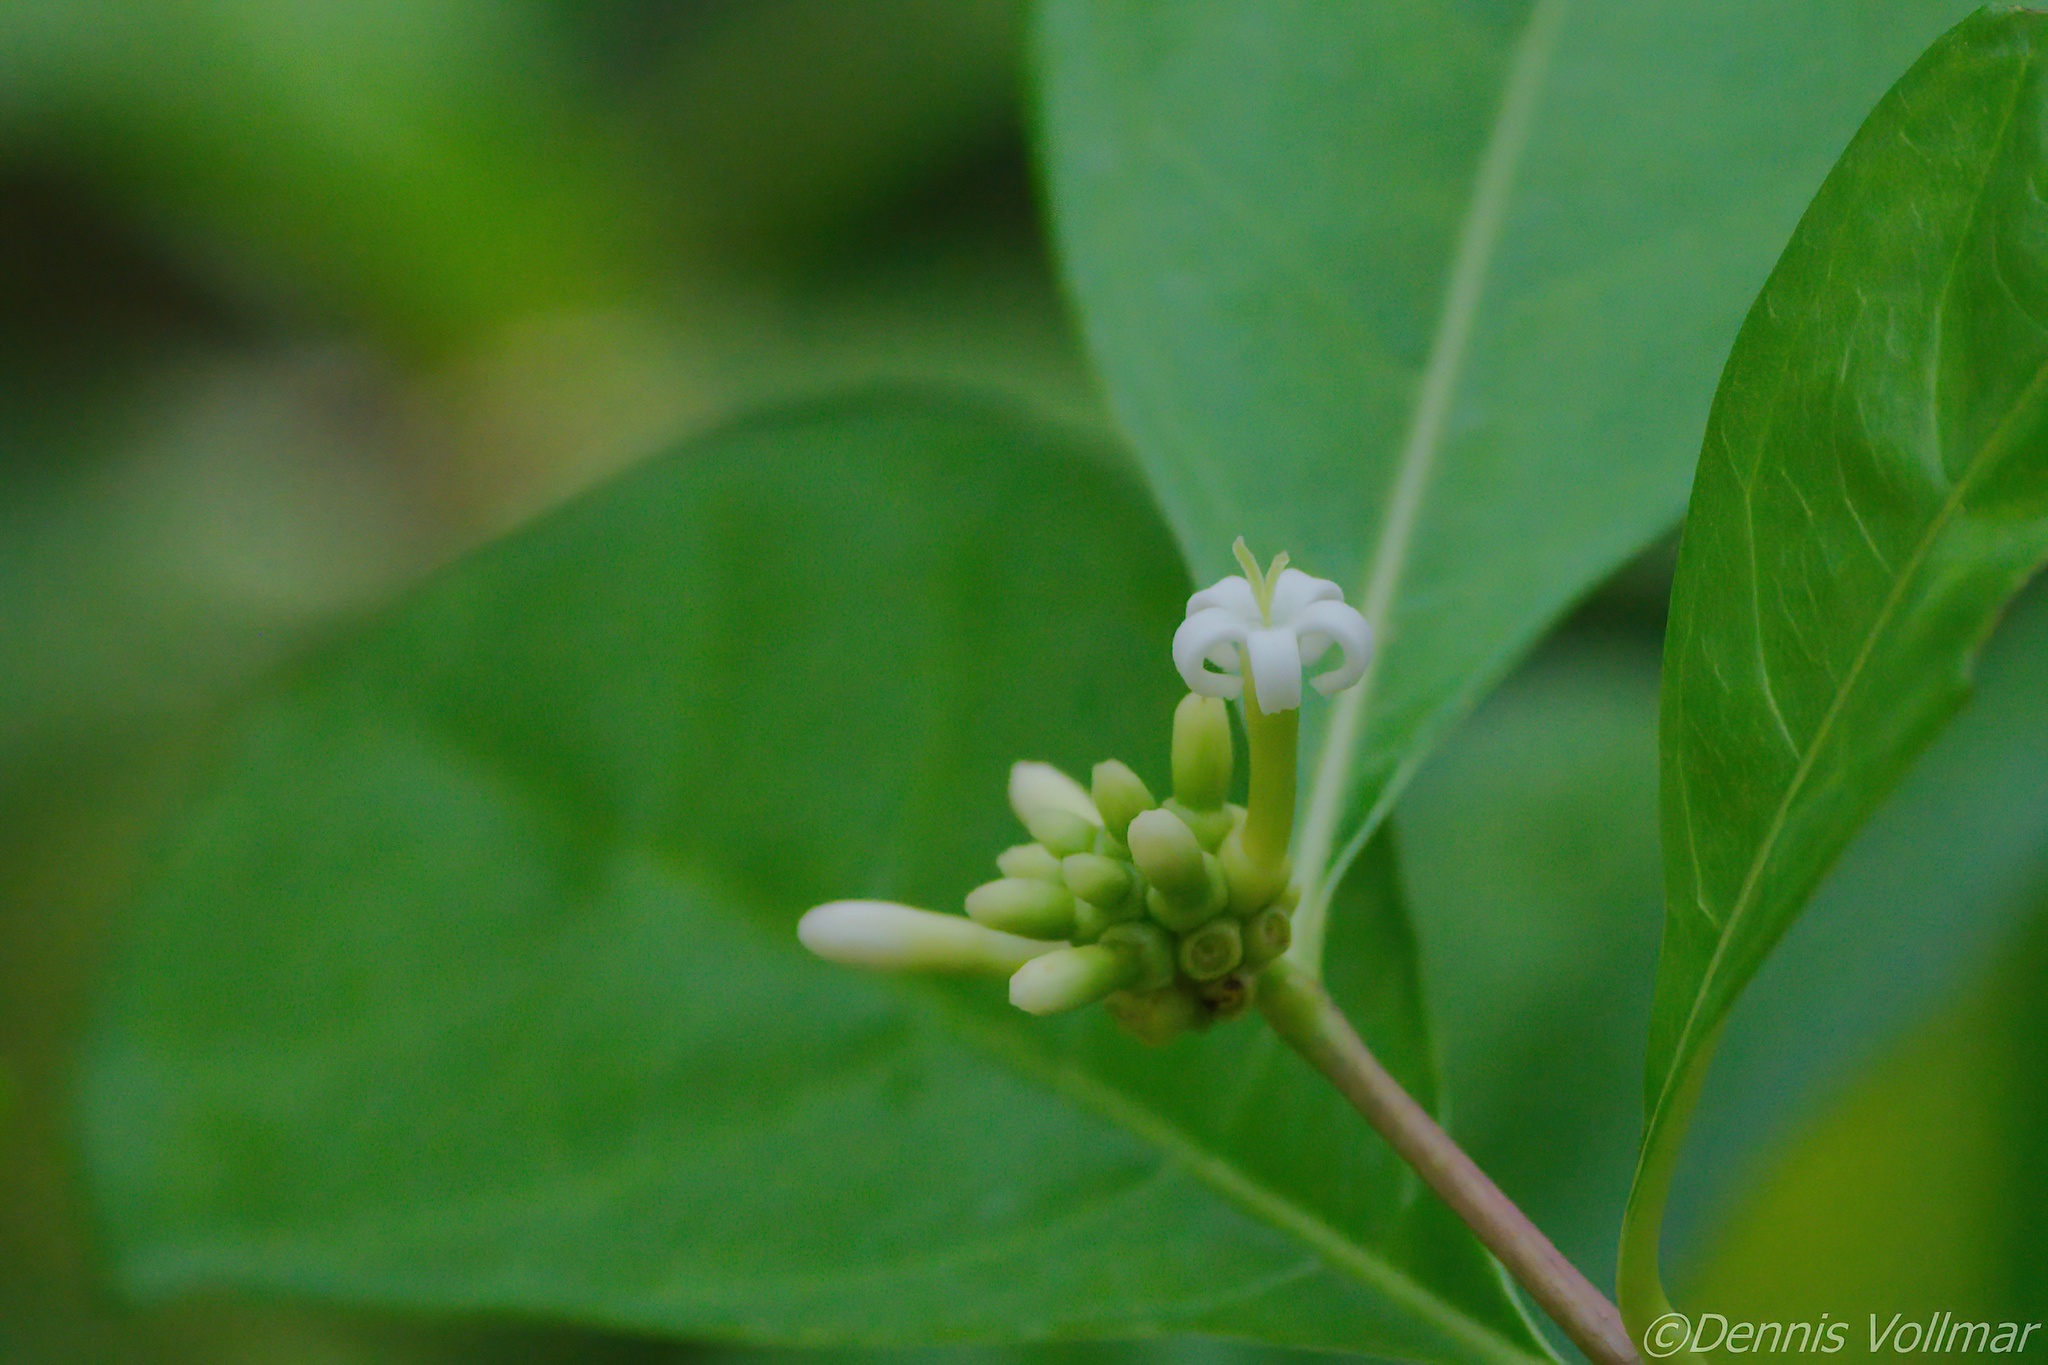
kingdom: Plantae
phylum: Tracheophyta
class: Magnoliopsida
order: Gentianales
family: Rubiaceae
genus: Morinda
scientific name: Morinda royoc
